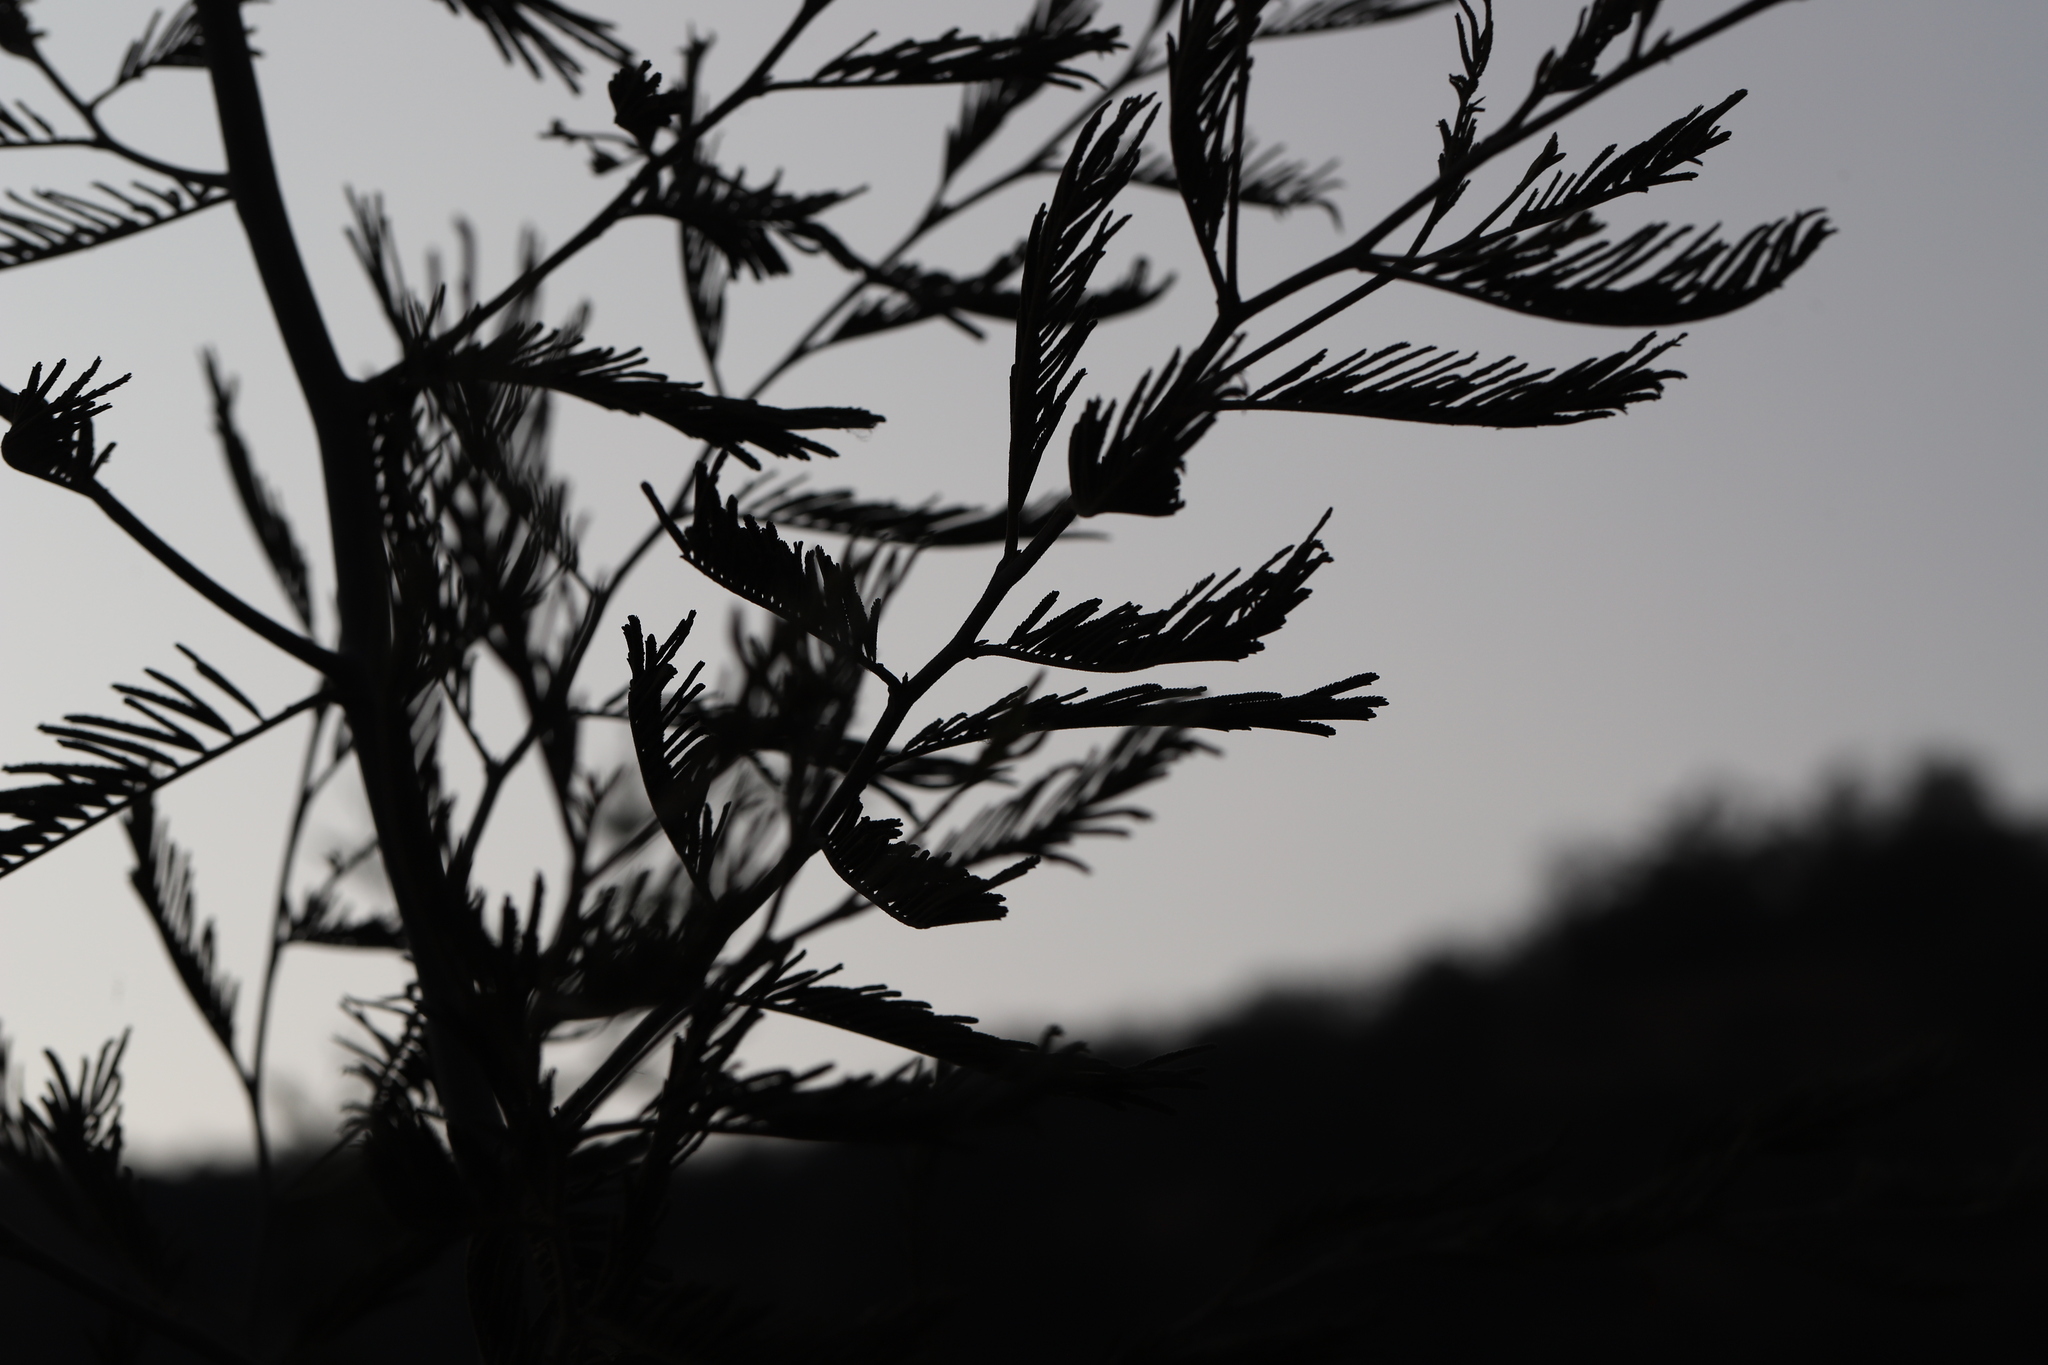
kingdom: Plantae
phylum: Tracheophyta
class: Magnoliopsida
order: Fabales
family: Fabaceae
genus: Acacia
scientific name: Acacia dealbata
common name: Silver wattle
